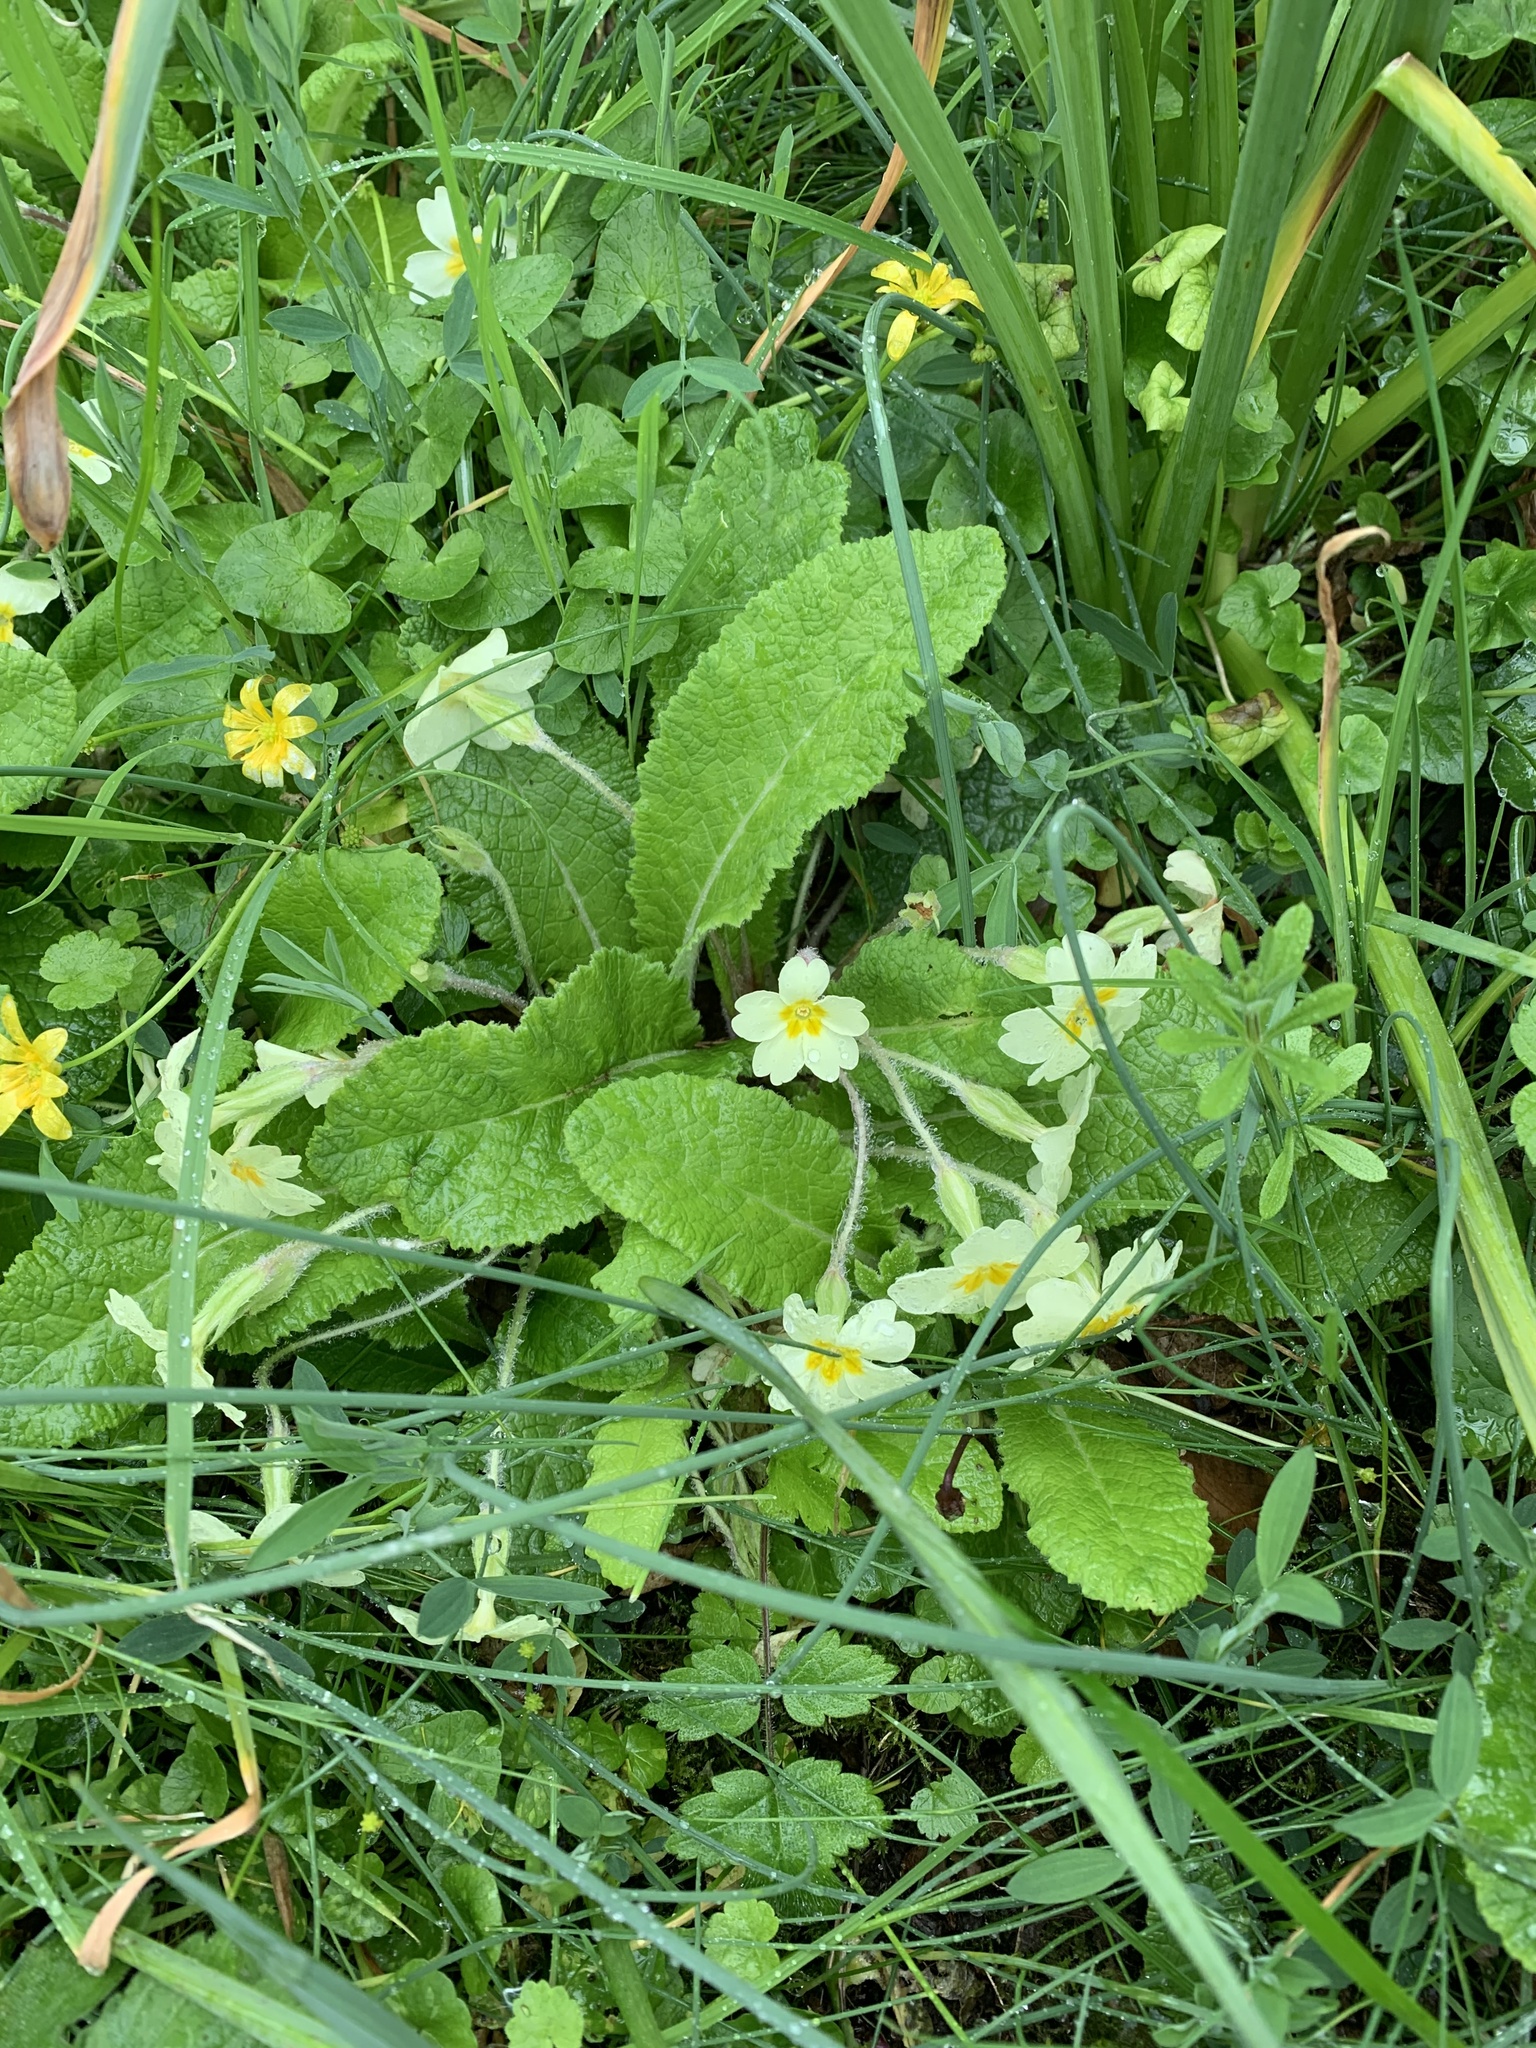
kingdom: Plantae
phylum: Tracheophyta
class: Magnoliopsida
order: Ericales
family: Primulaceae
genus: Primula
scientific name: Primula vulgaris
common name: Primrose
